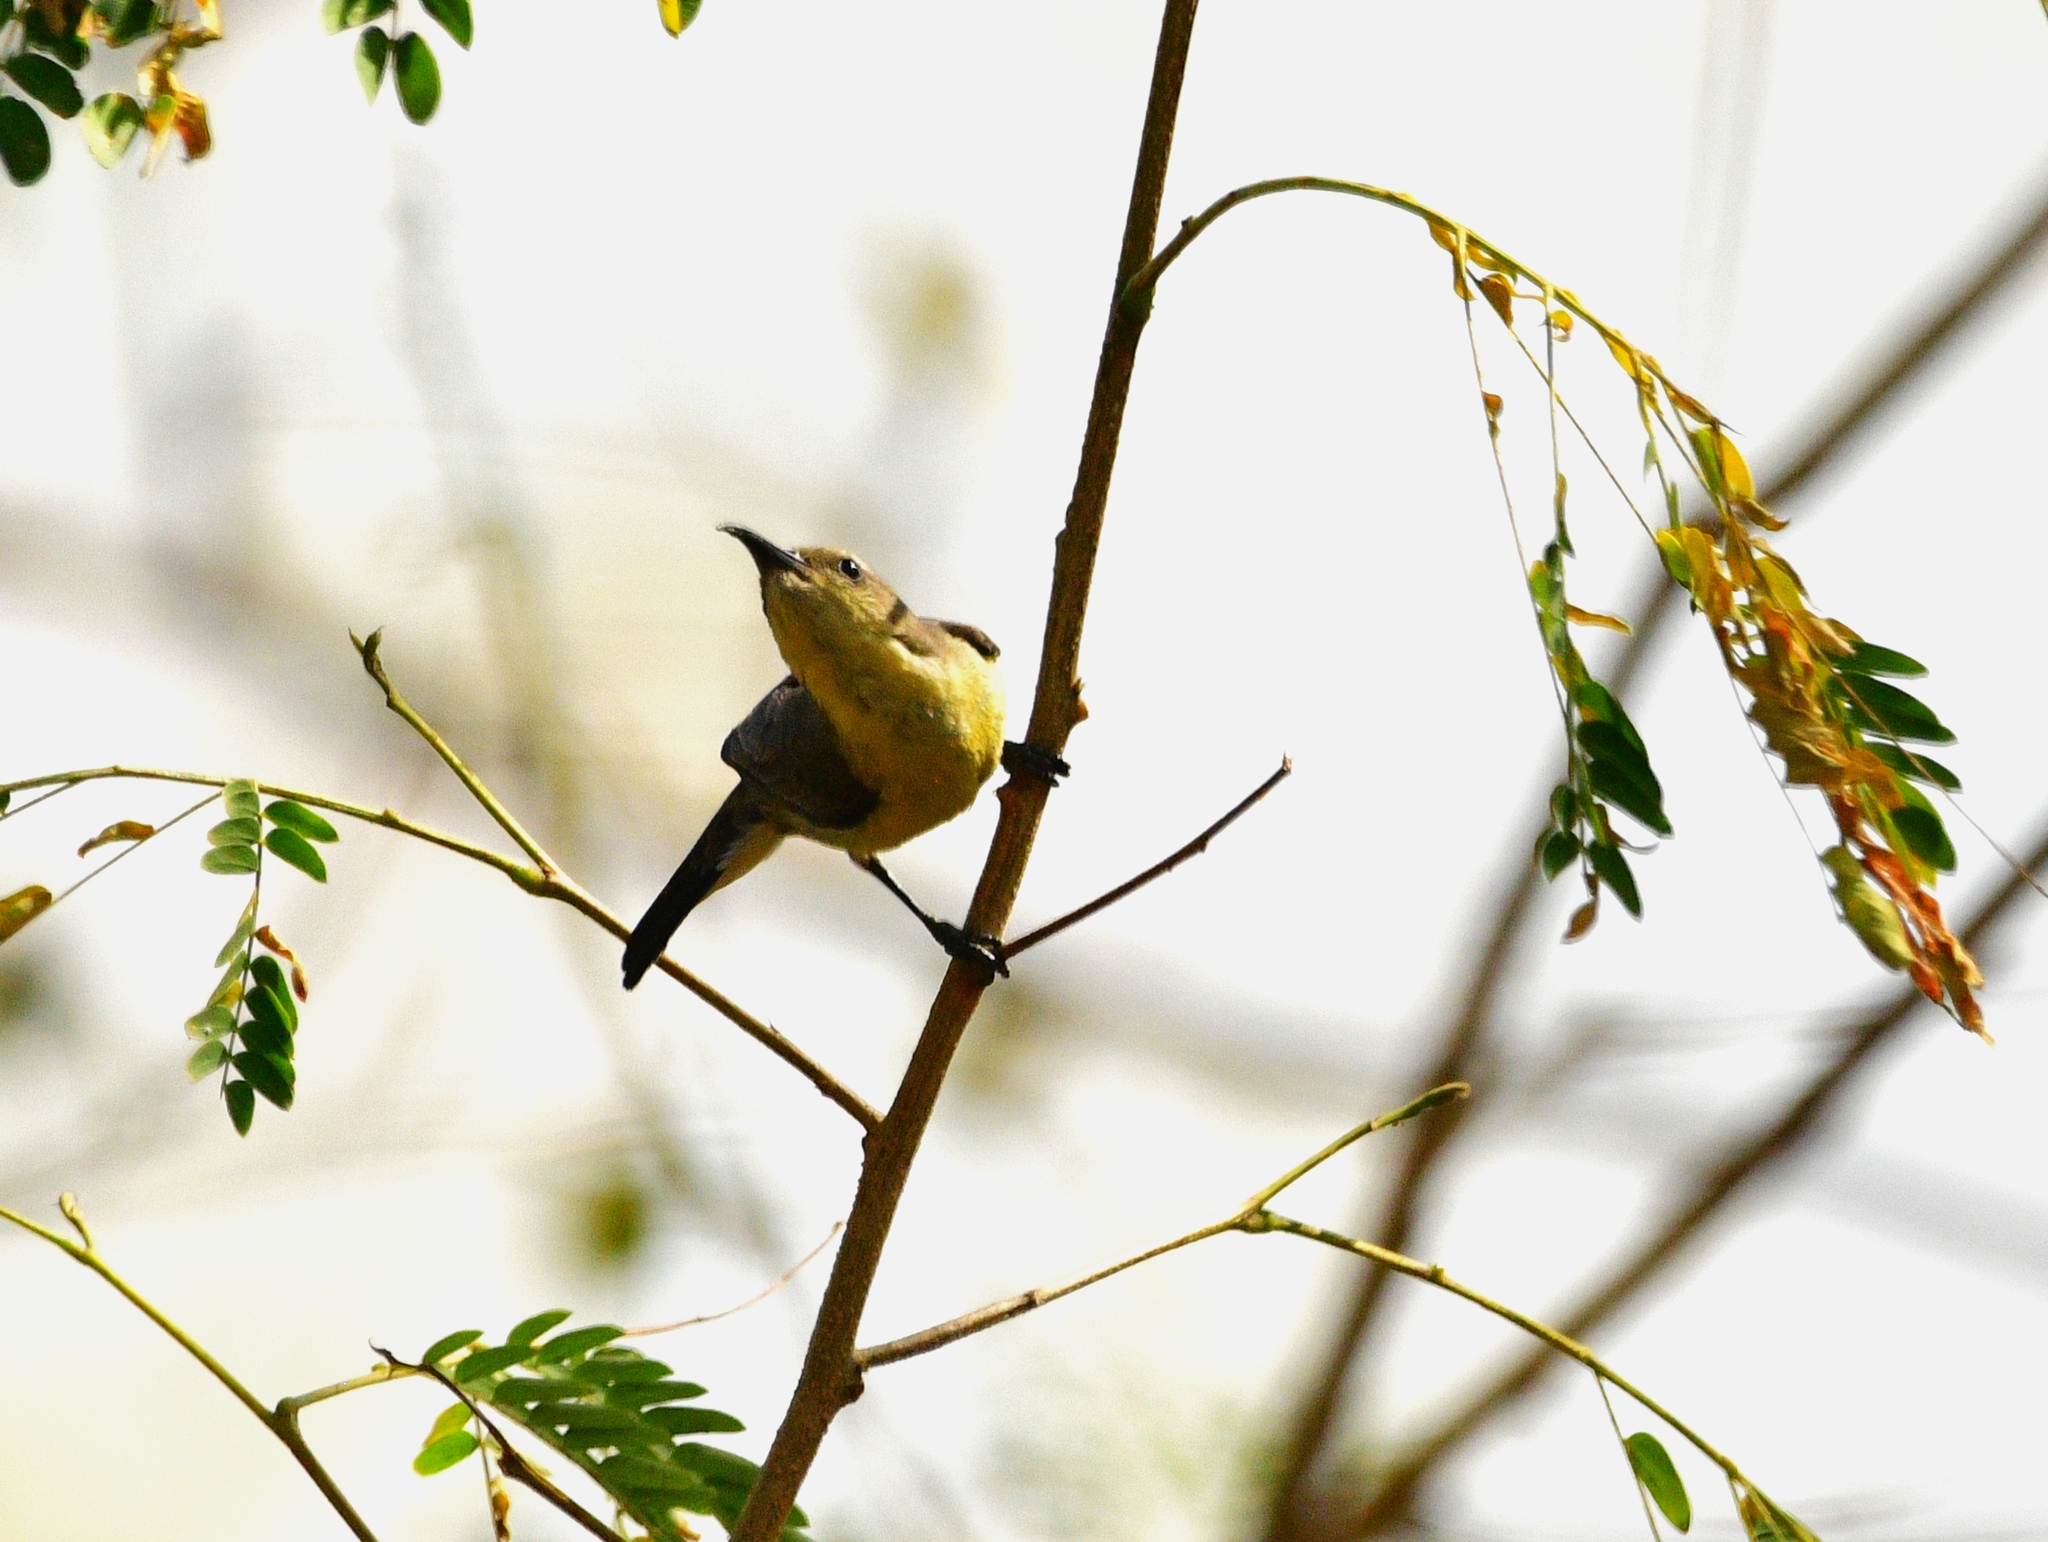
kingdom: Animalia
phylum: Chordata
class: Aves
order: Passeriformes
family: Nectariniidae
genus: Cinnyris
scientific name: Cinnyris asiaticus
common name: Purple sunbird
